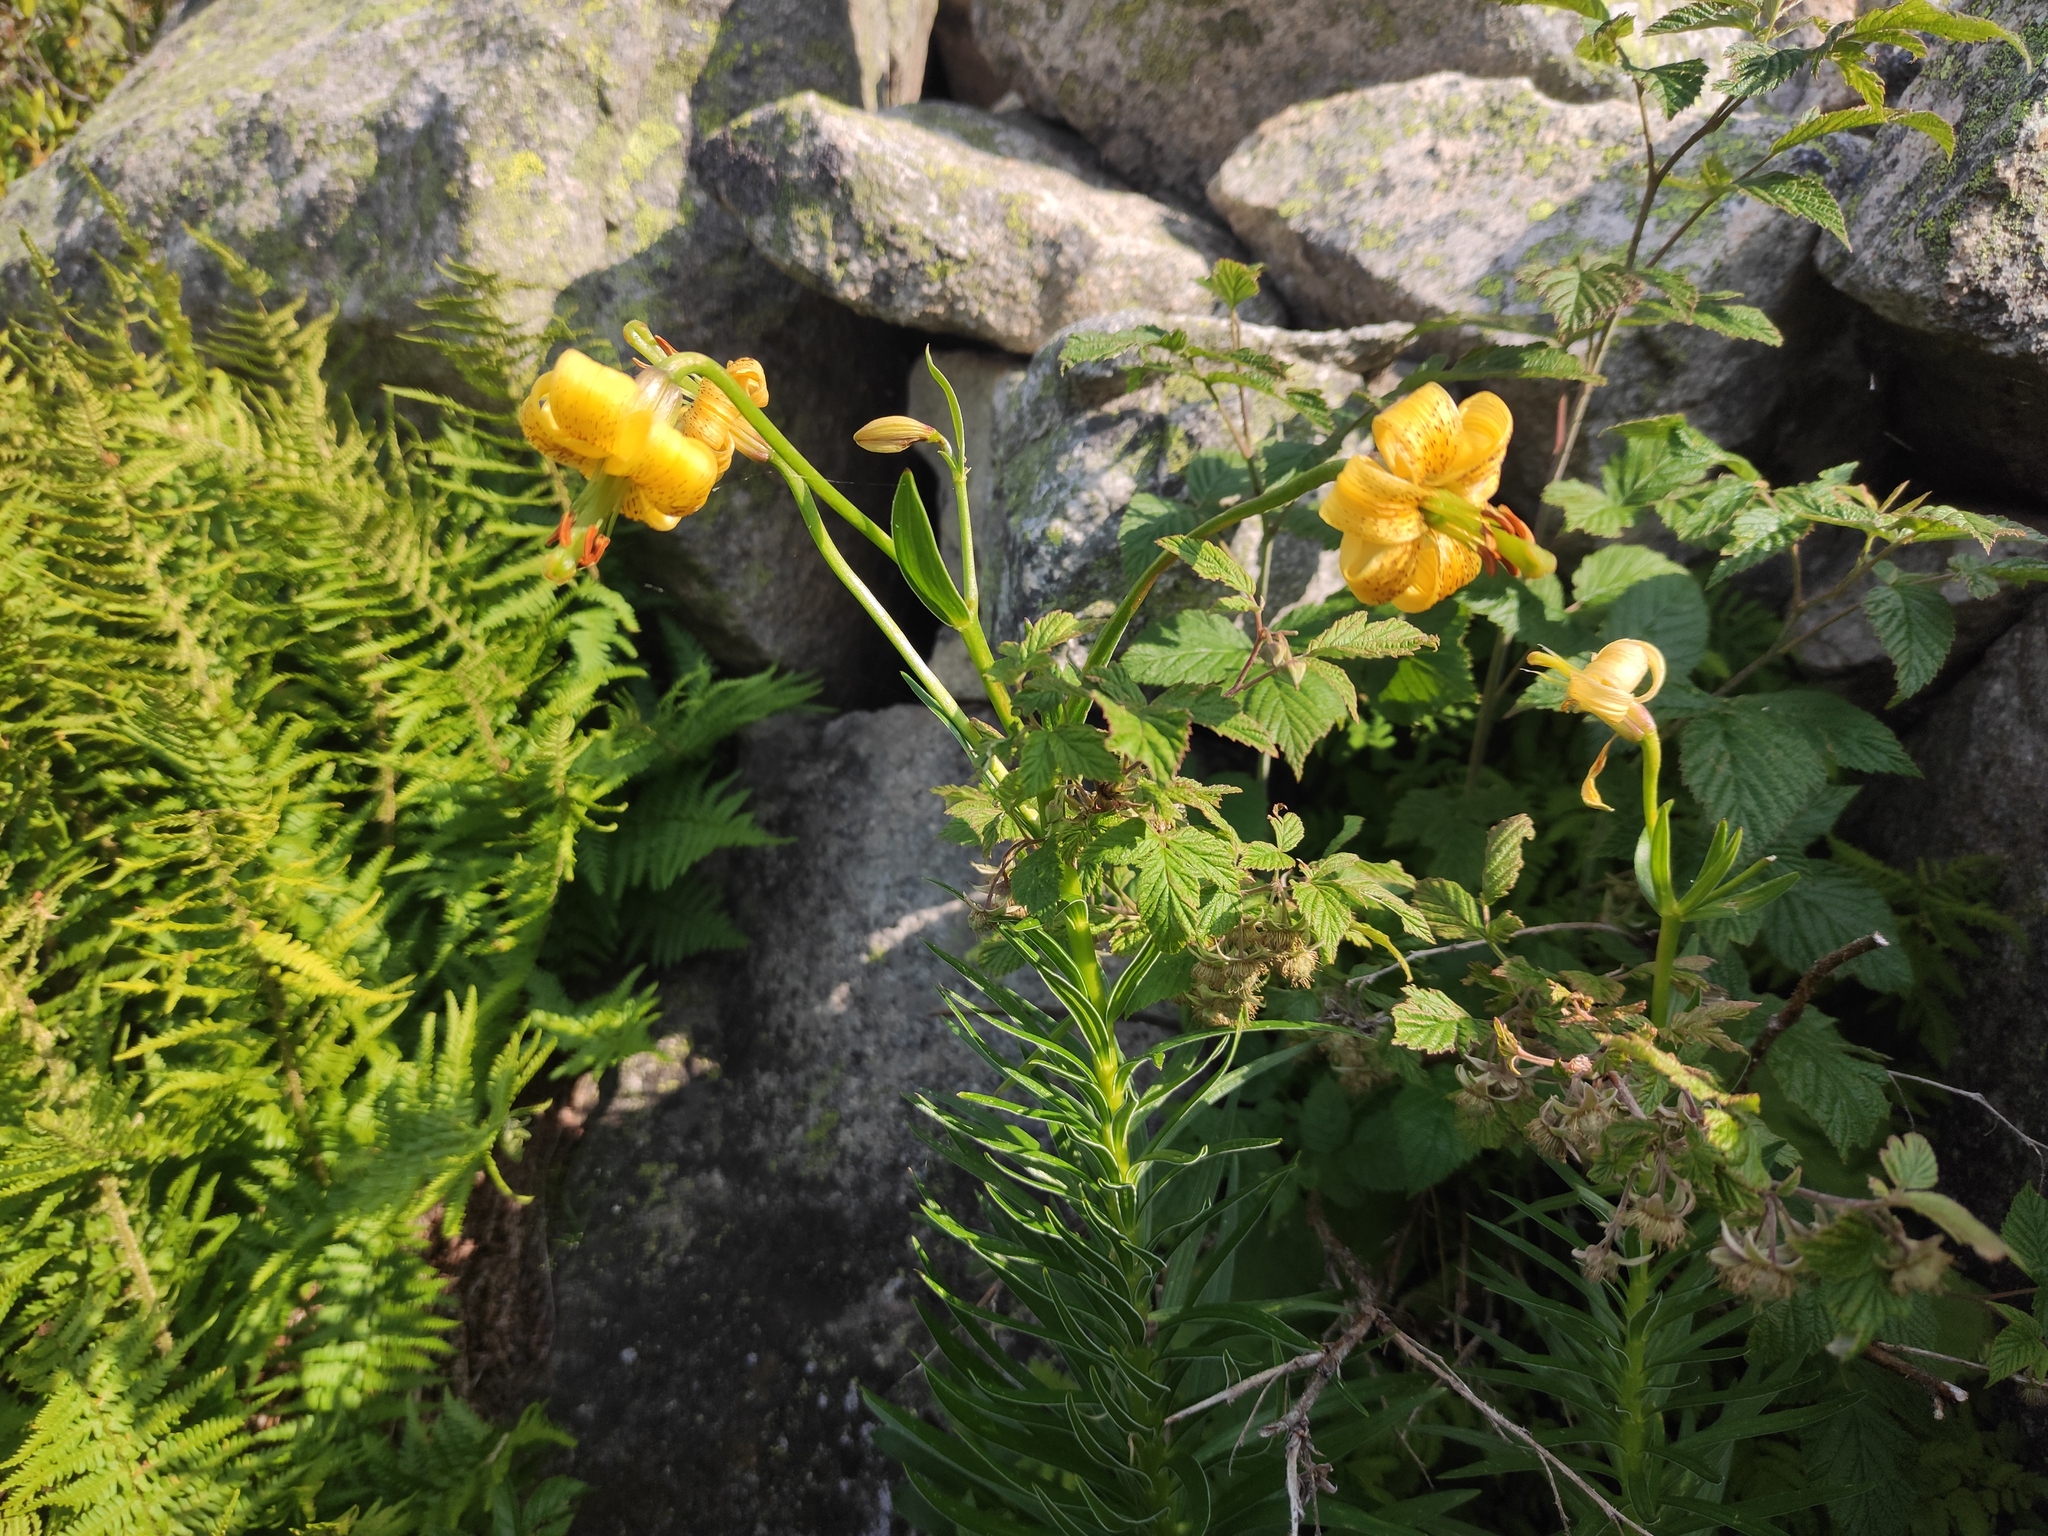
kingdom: Plantae
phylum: Tracheophyta
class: Liliopsida
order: Liliales
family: Liliaceae
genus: Lilium
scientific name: Lilium pyrenaicum
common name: Pyrenean lily
